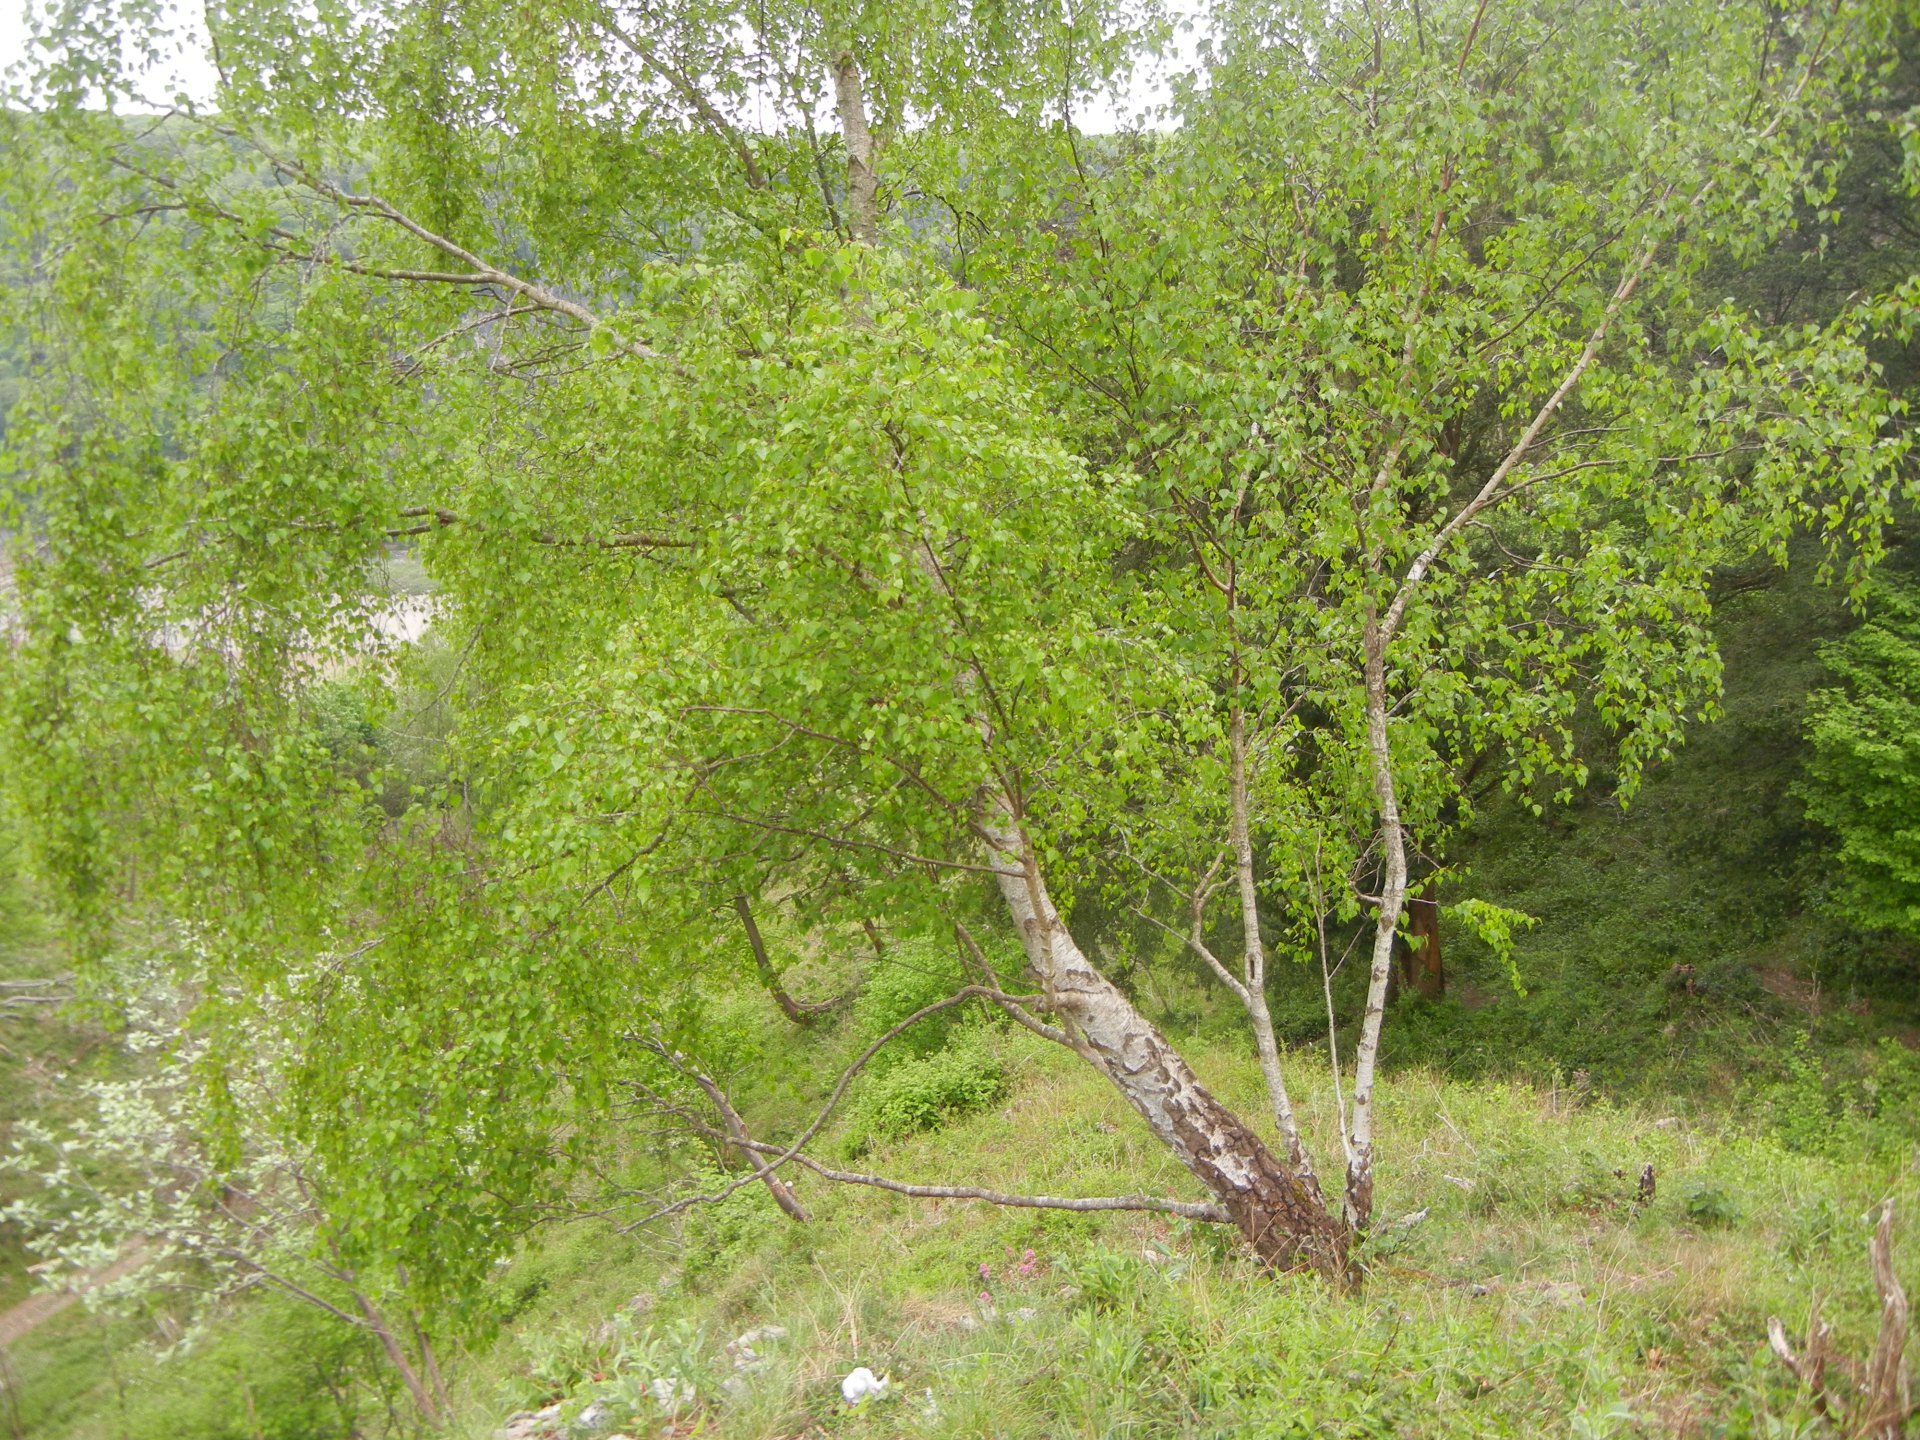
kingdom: Plantae
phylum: Tracheophyta
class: Magnoliopsida
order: Fagales
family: Betulaceae
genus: Betula
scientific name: Betula pendula
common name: Silver birch
